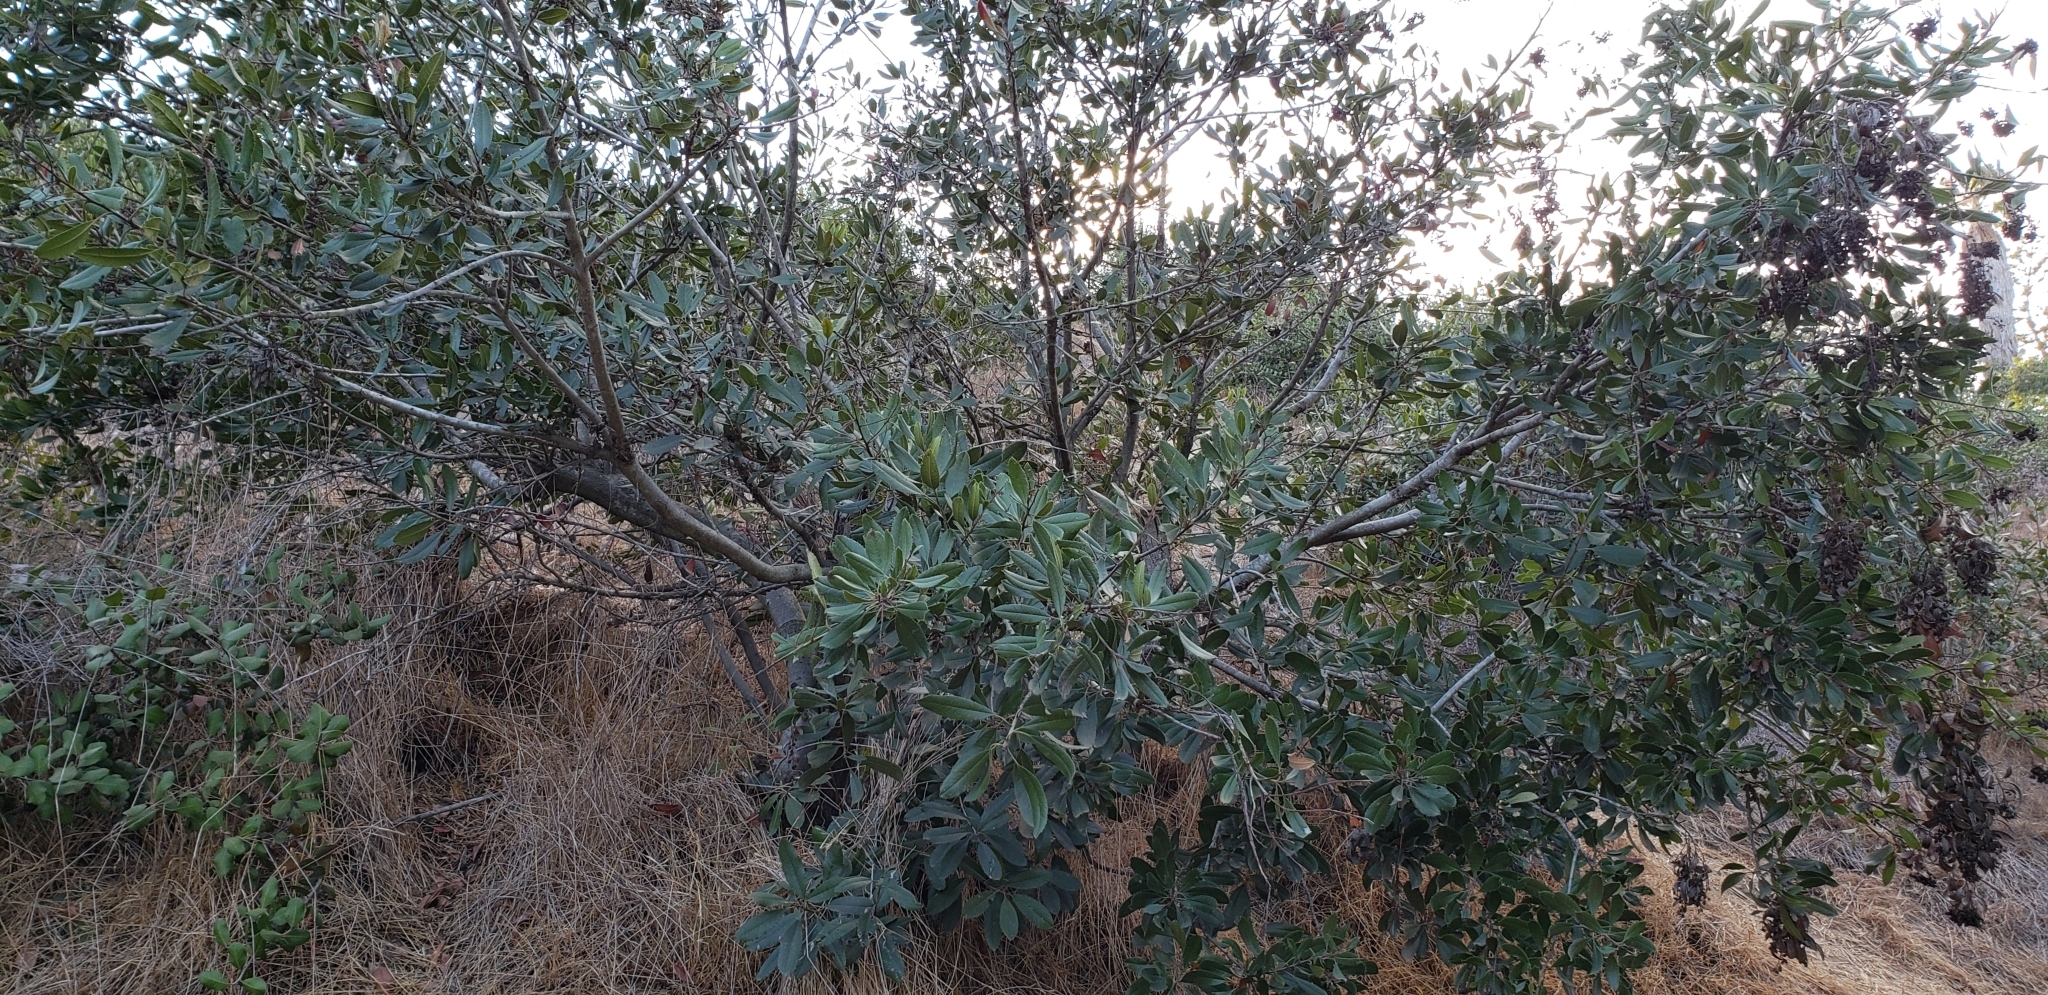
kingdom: Plantae
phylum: Tracheophyta
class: Magnoliopsida
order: Rosales
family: Rosaceae
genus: Heteromeles
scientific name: Heteromeles arbutifolia
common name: California-holly
